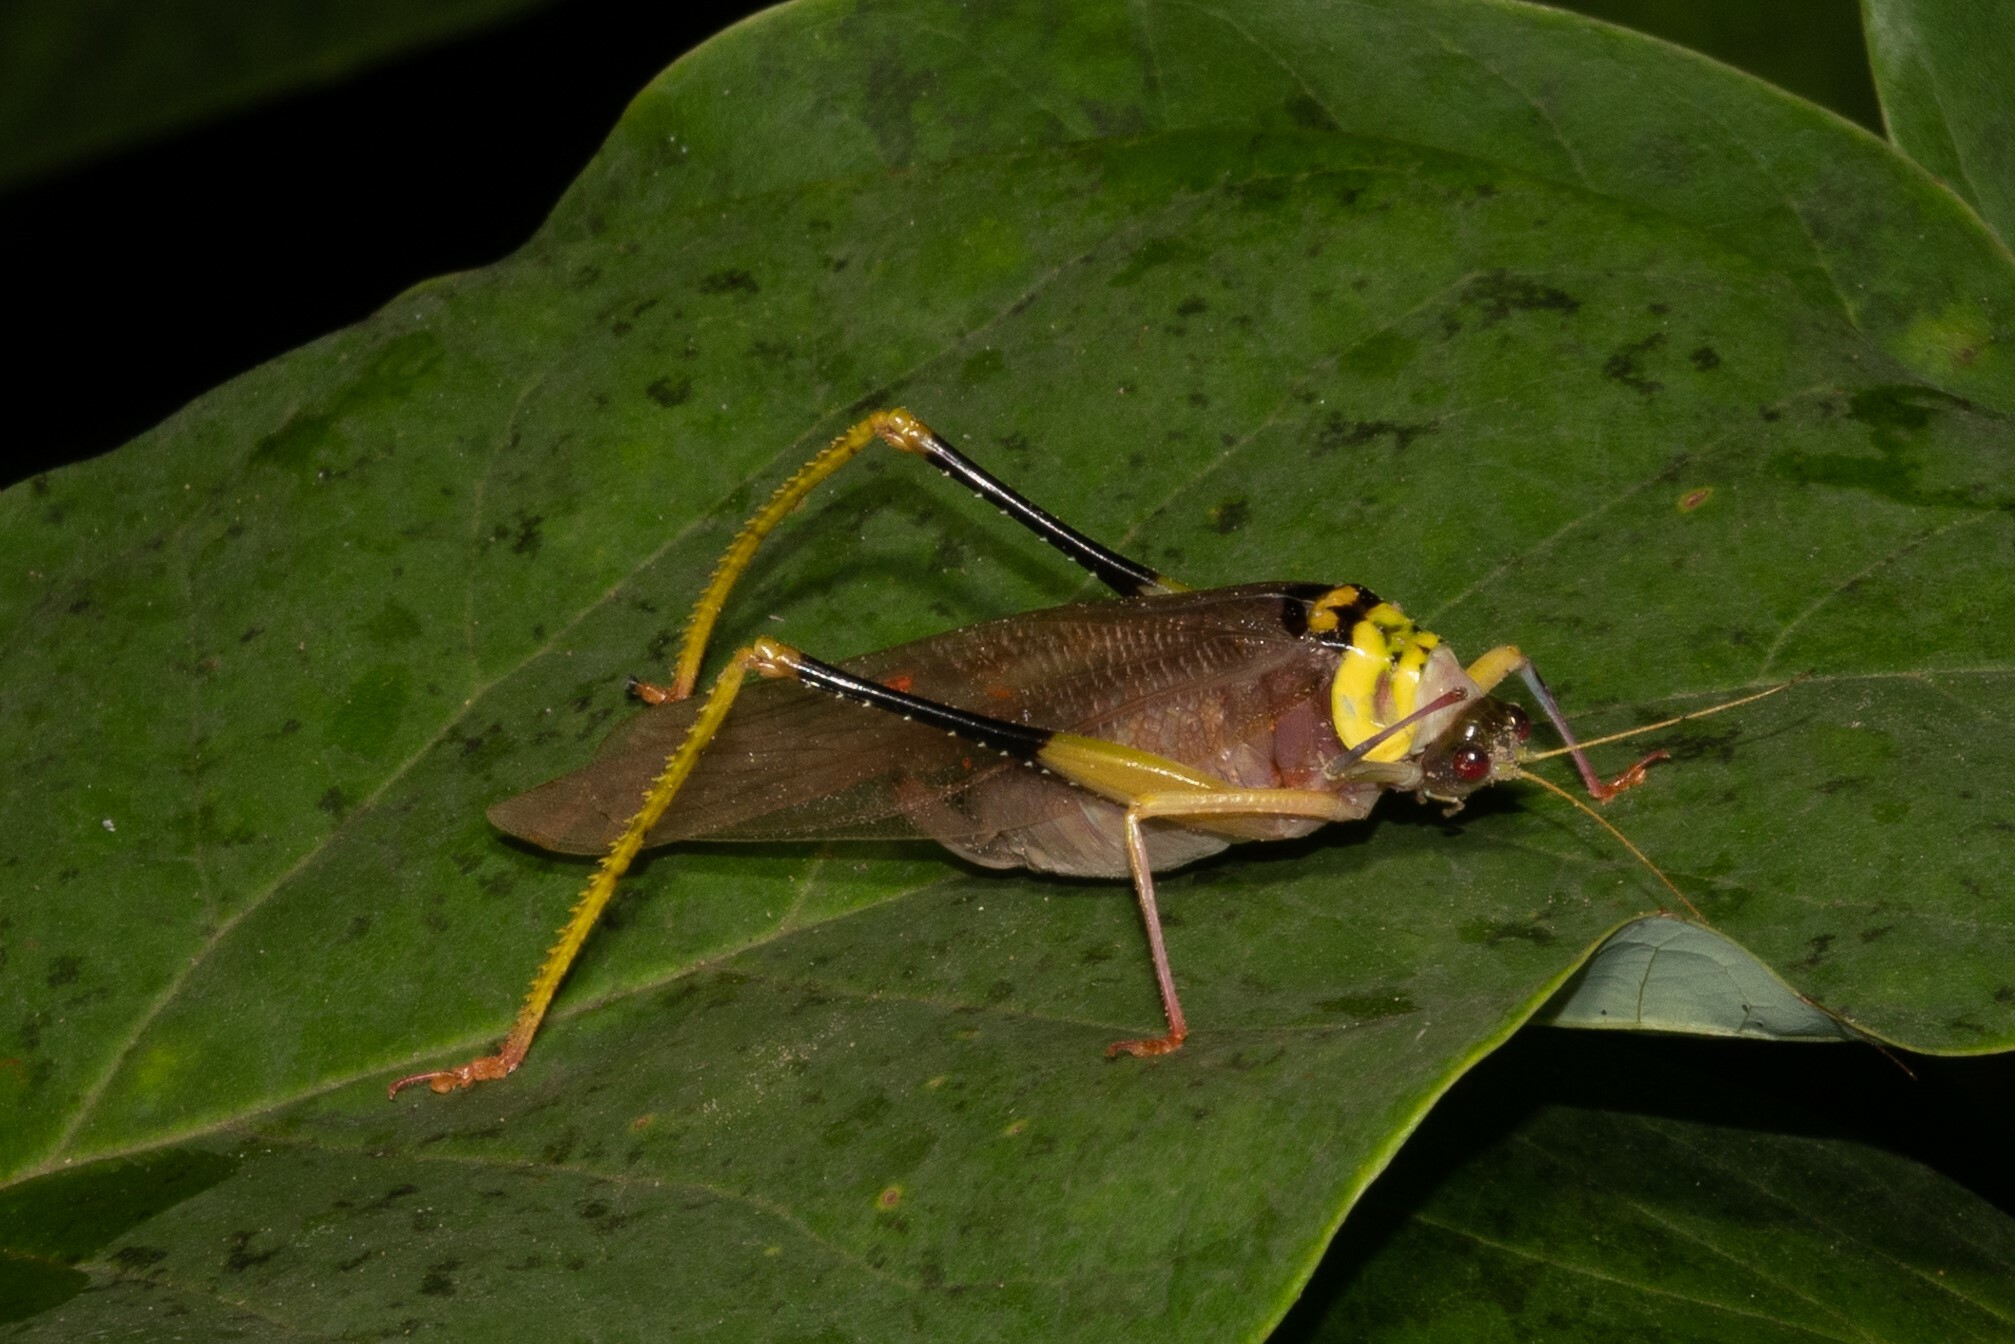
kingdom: Animalia
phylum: Arthropoda
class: Insecta
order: Orthoptera
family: Tettigoniidae
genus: Euceraia
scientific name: Euceraia insignis
